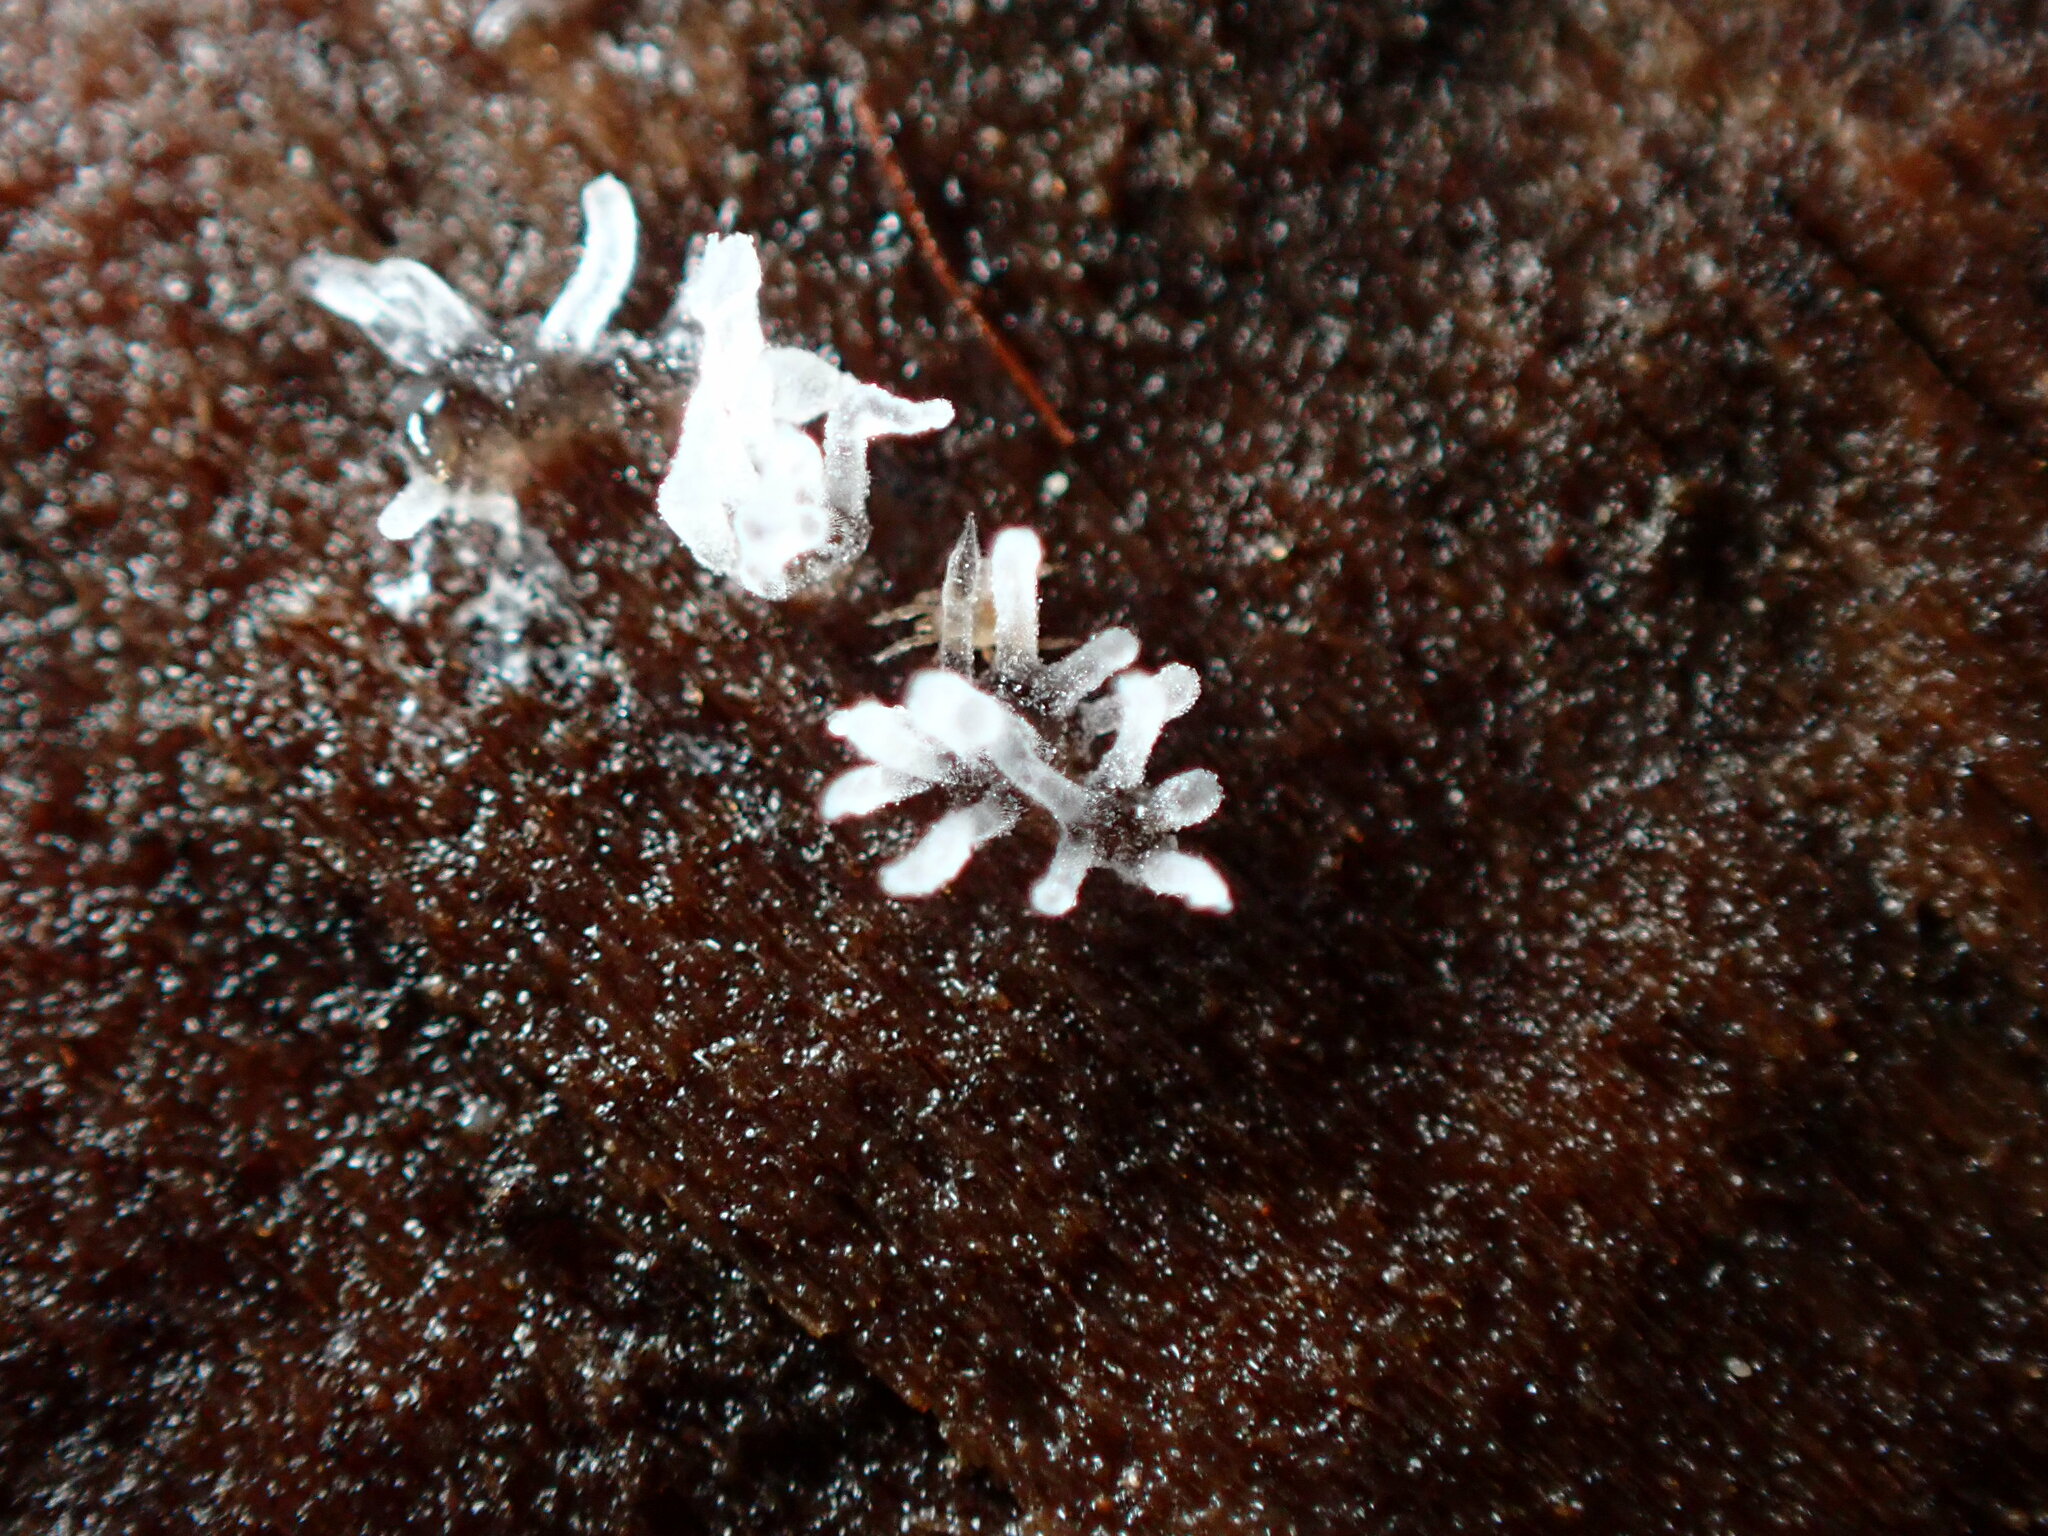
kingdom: Protozoa
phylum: Mycetozoa
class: Protosteliomycetes
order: Ceratiomyxales
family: Ceratiomyxaceae
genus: Ceratiomyxa
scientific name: Ceratiomyxa fruticulosa
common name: Honeycomb coral slime mold
